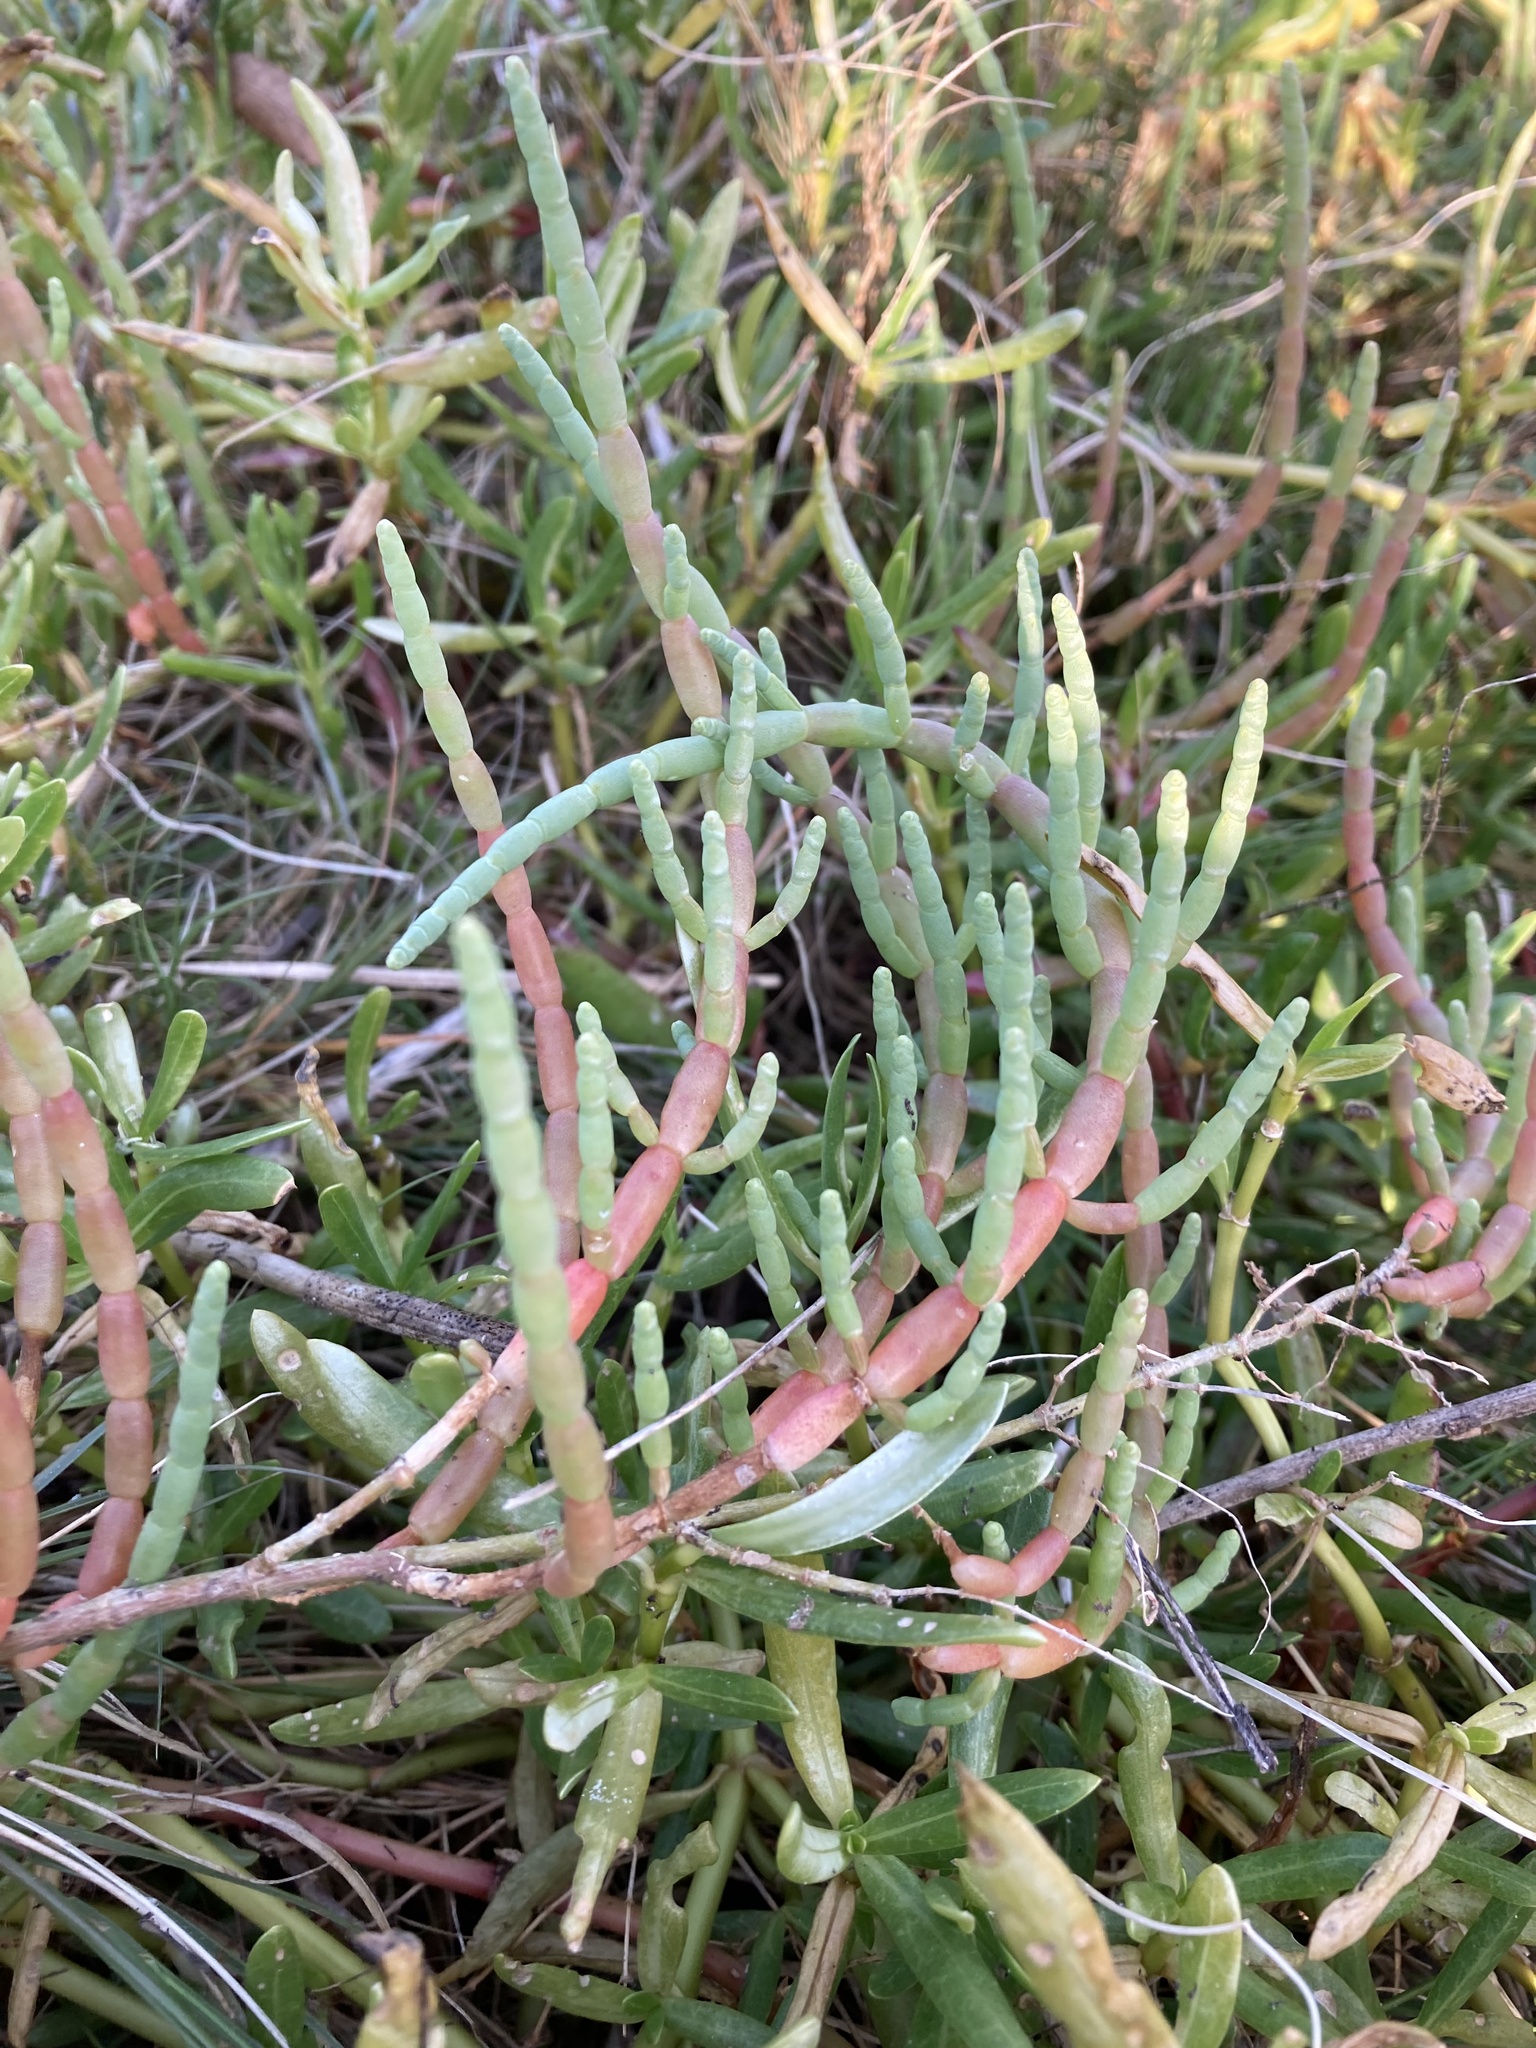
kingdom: Plantae
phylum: Tracheophyta
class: Magnoliopsida
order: Caryophyllales
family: Amaranthaceae
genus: Salicornia
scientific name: Salicornia ambigua
